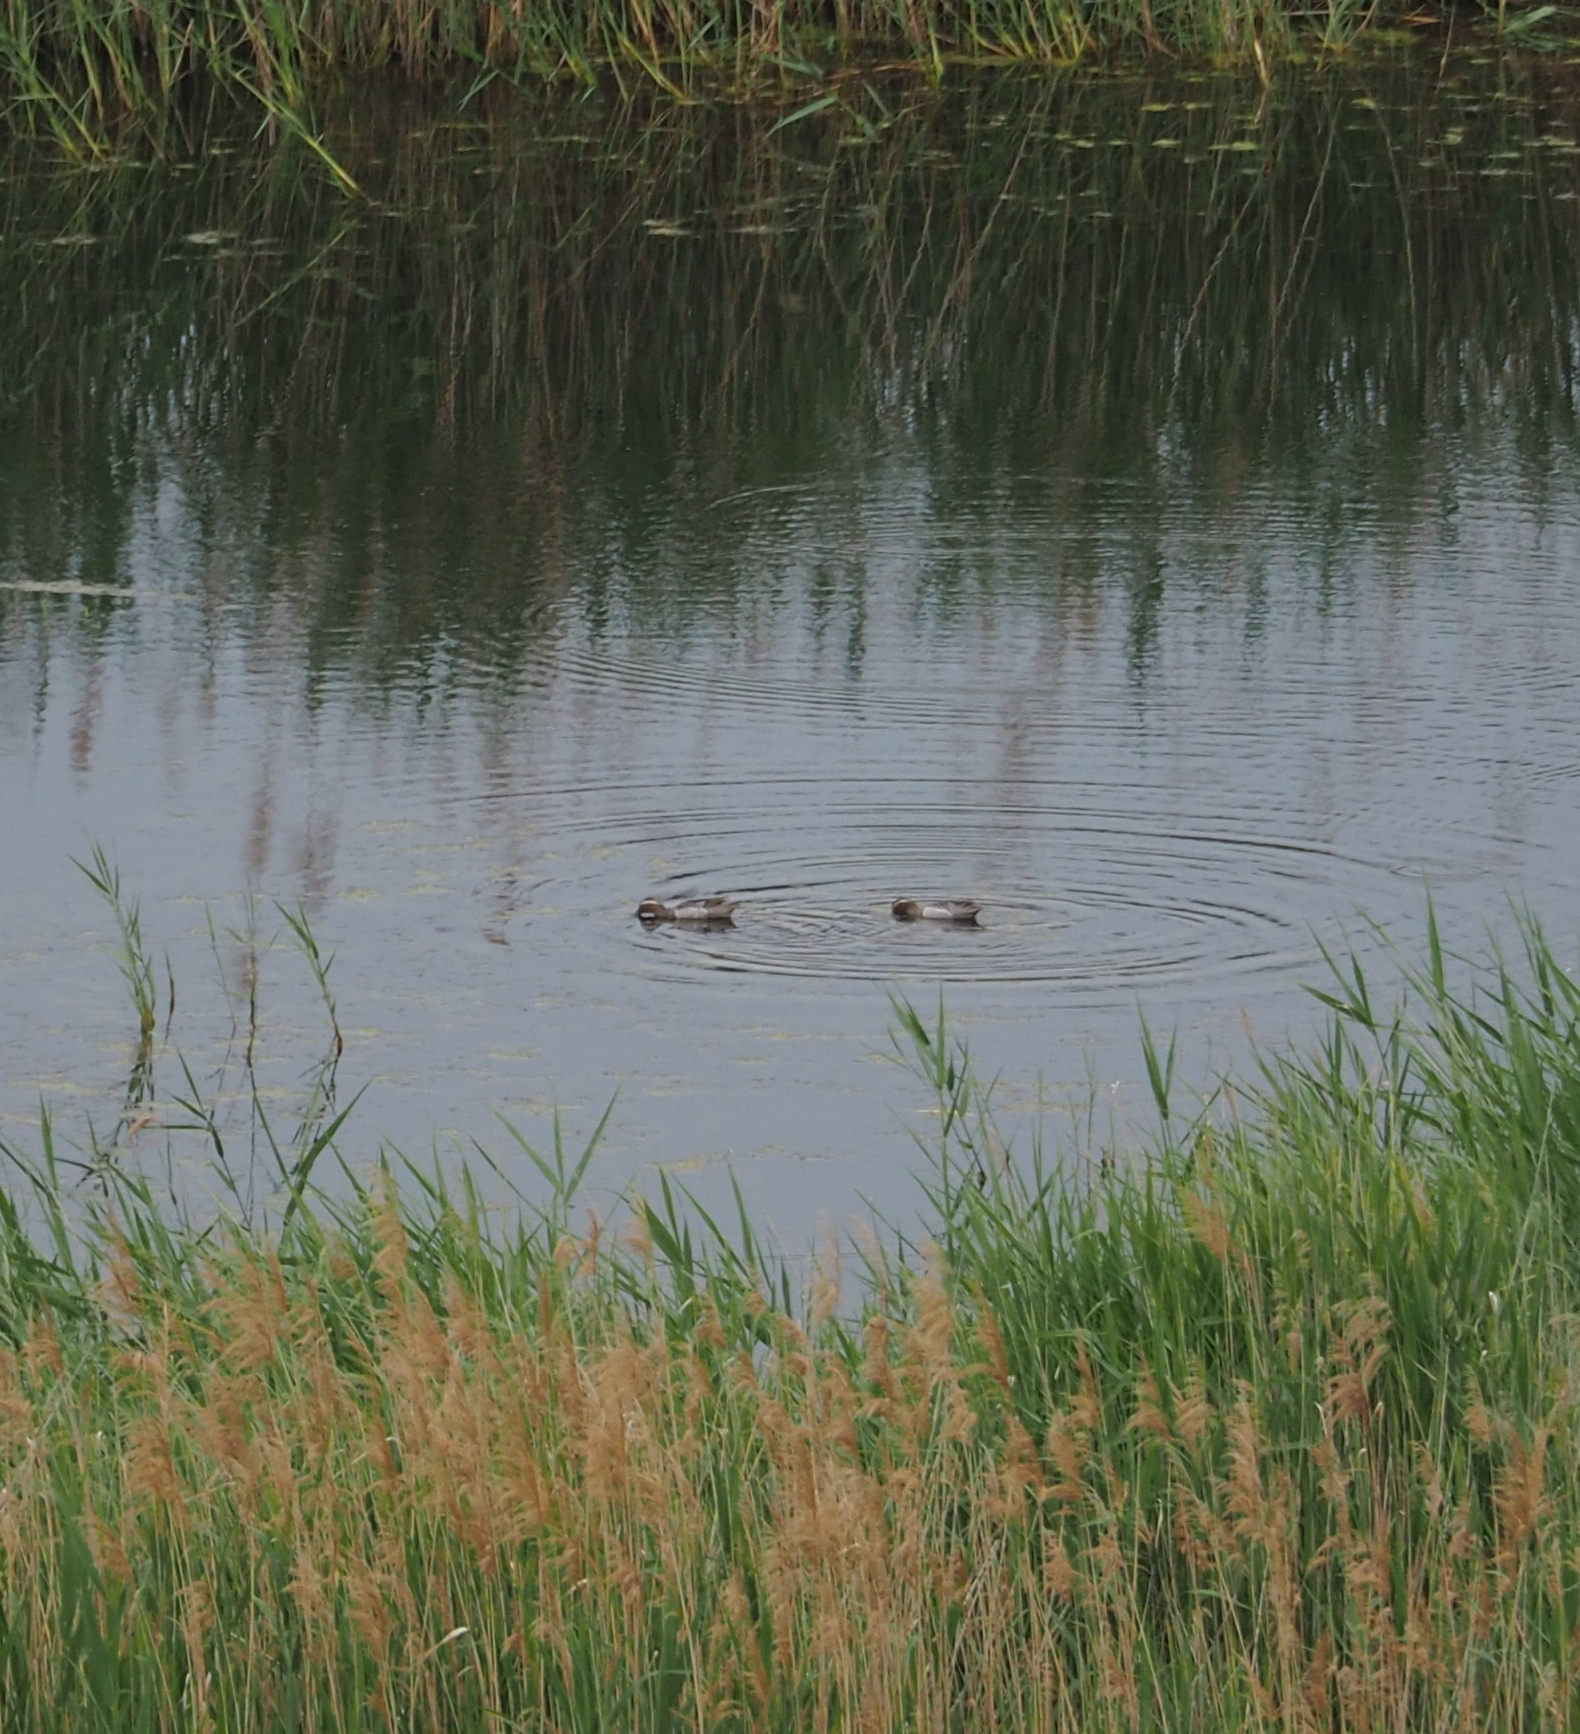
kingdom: Animalia
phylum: Chordata
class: Aves
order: Anseriformes
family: Anatidae
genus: Spatula
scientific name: Spatula querquedula
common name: Garganey
